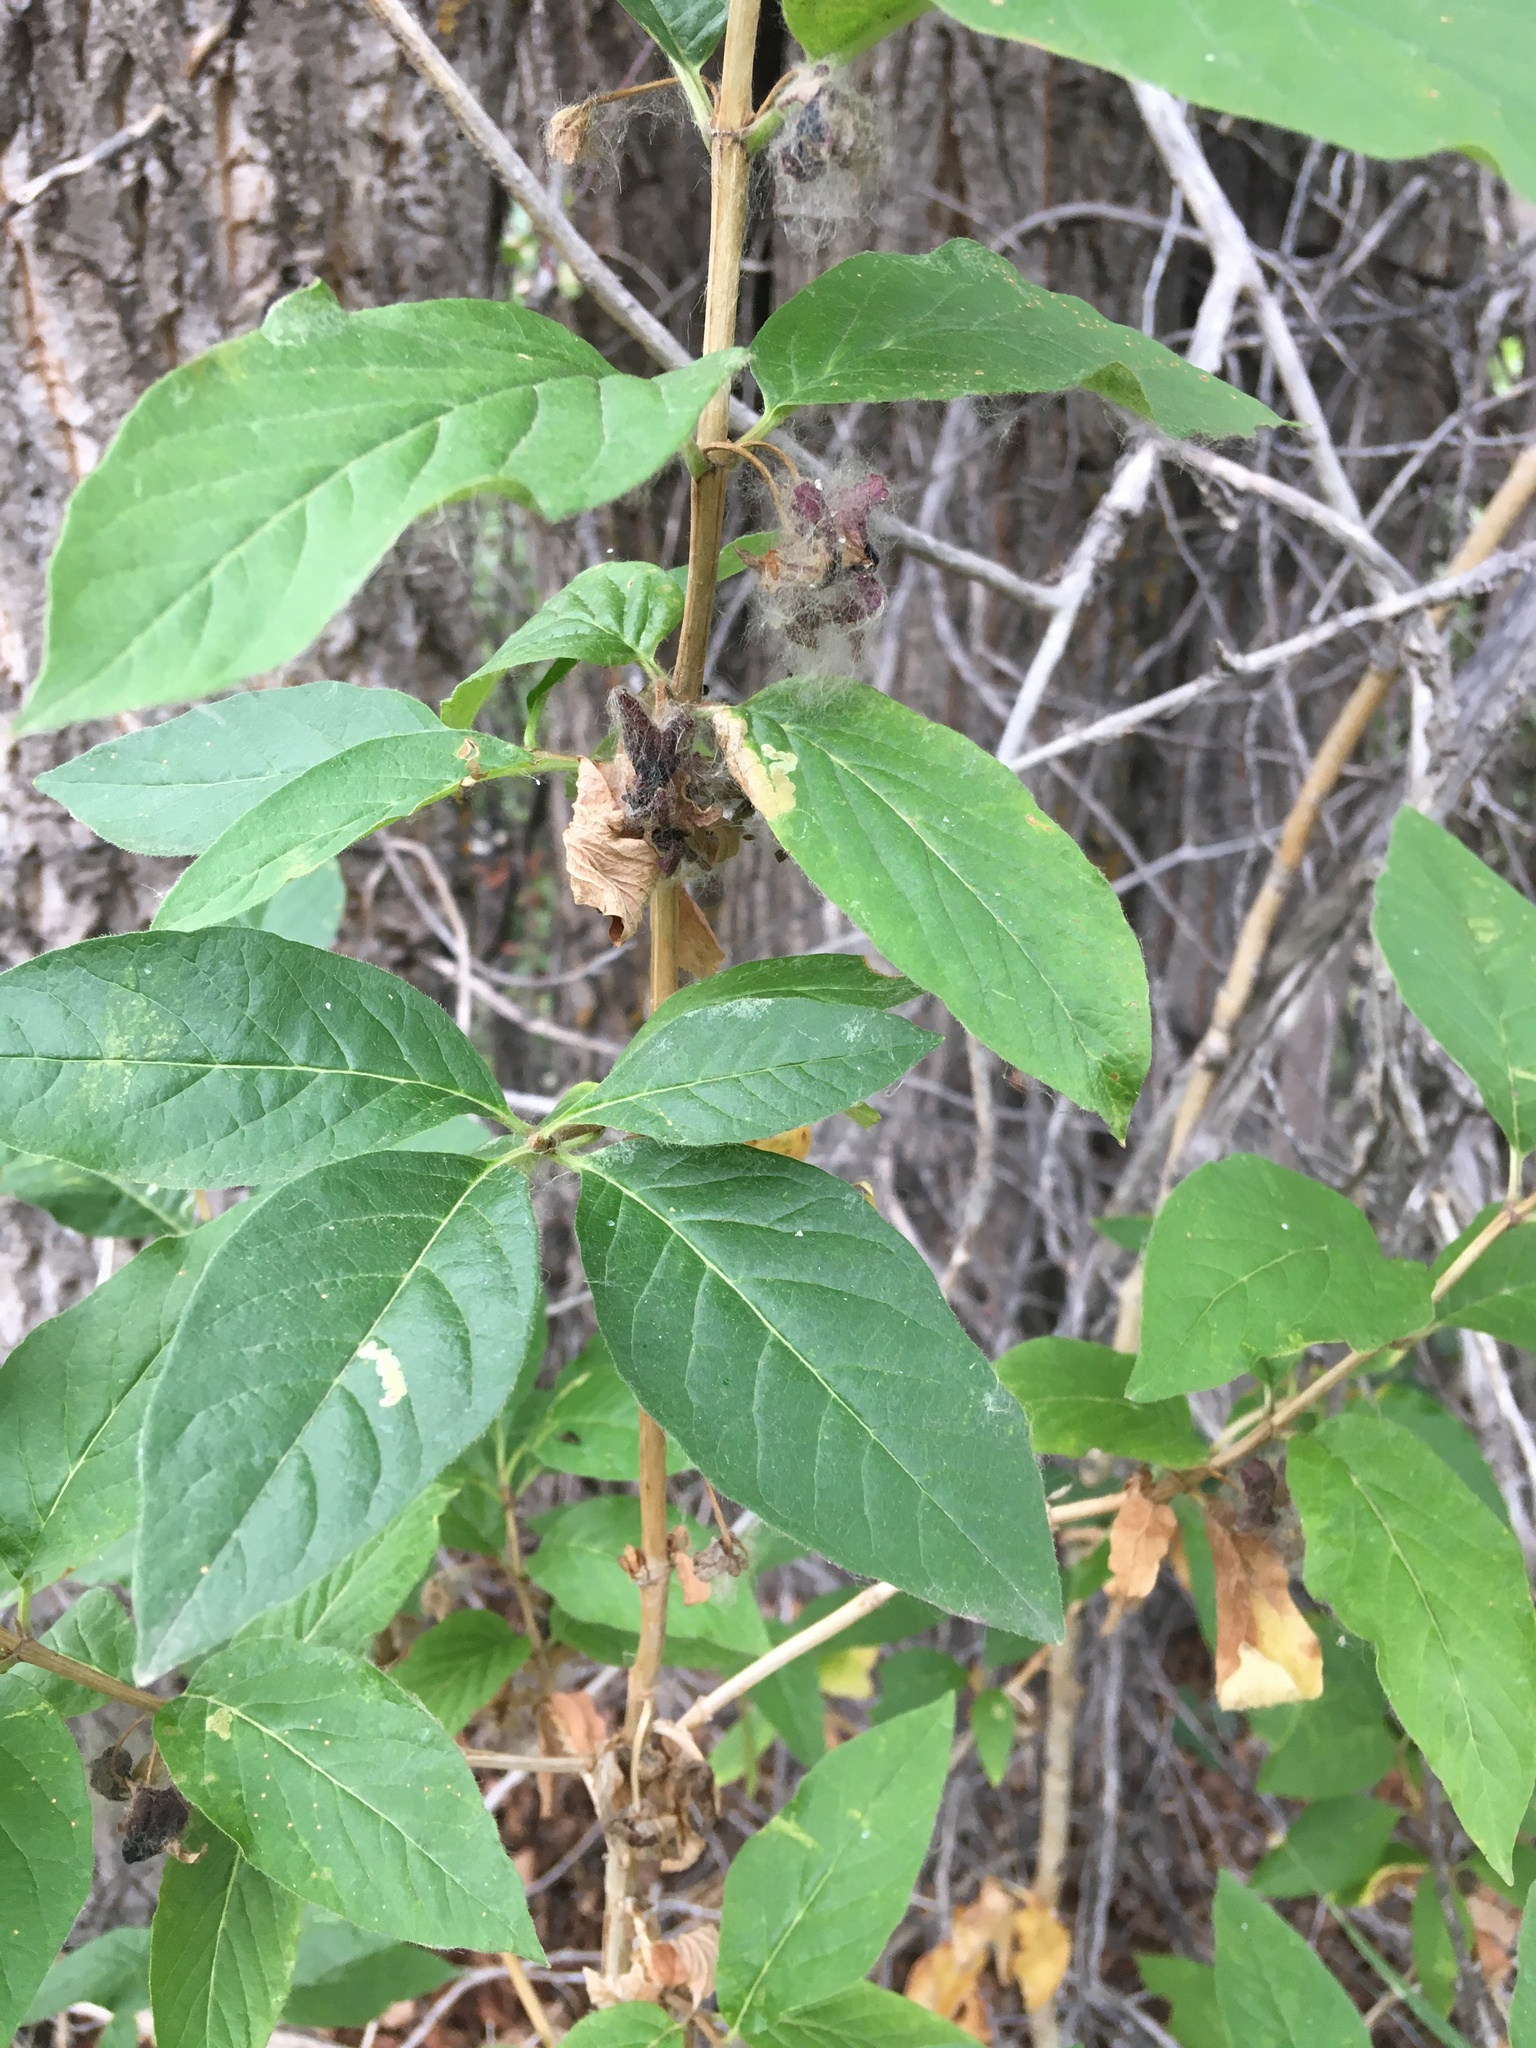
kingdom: Plantae
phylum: Tracheophyta
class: Magnoliopsida
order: Dipsacales
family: Caprifoliaceae
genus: Lonicera
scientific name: Lonicera involucrata
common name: Californian honeysuckle
